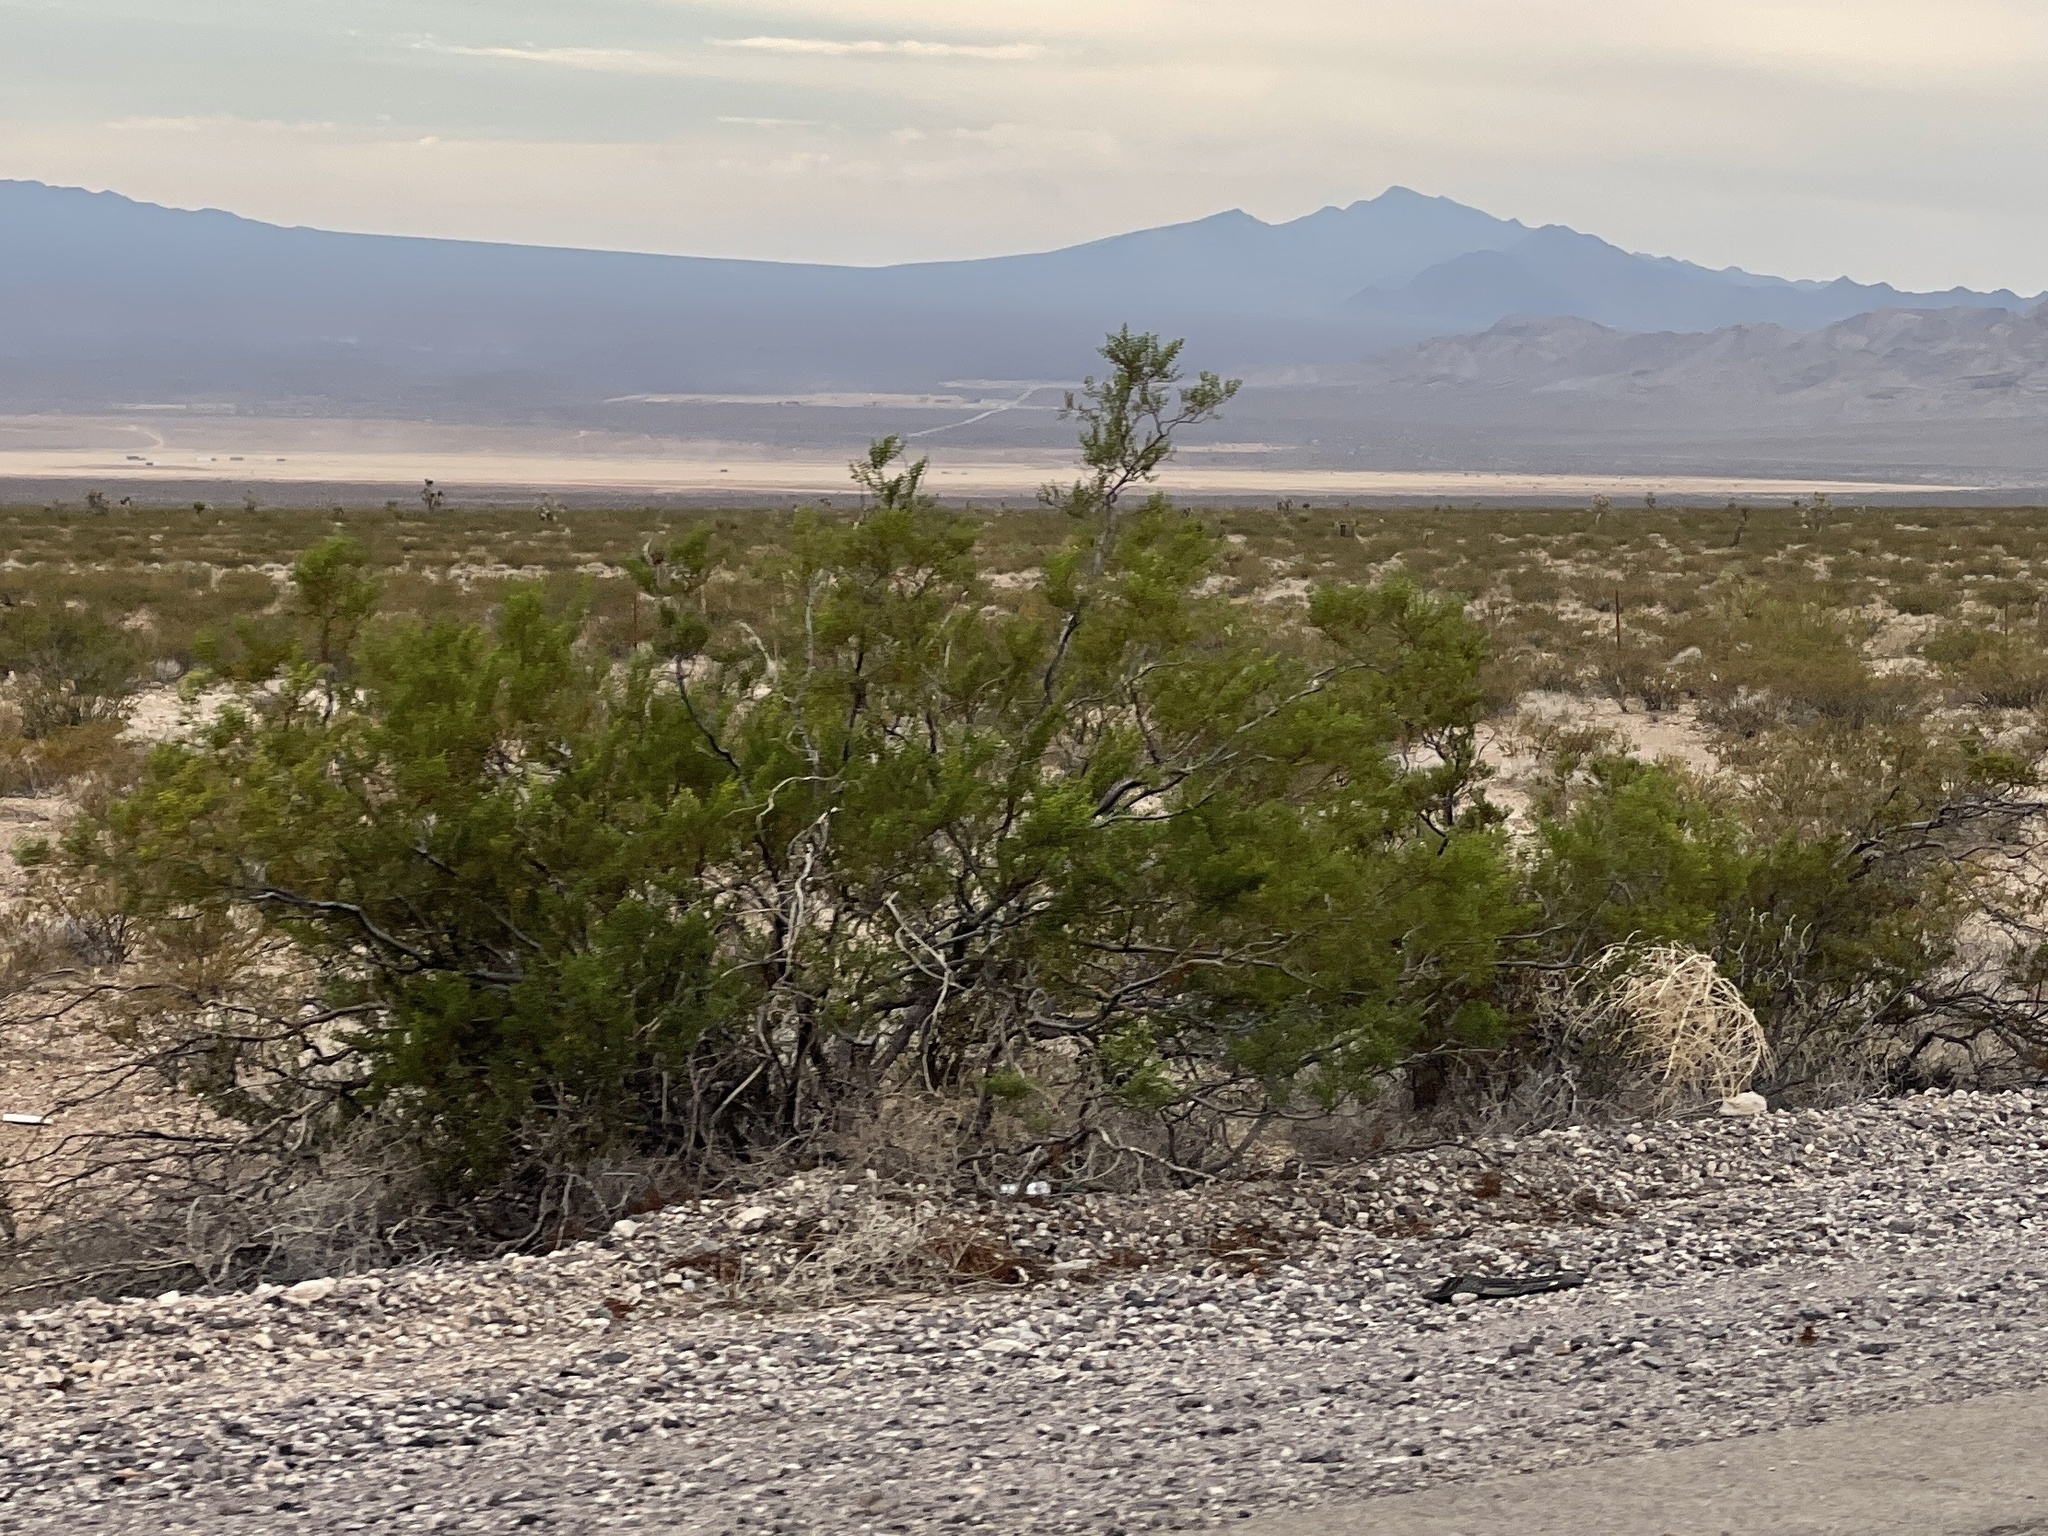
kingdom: Plantae
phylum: Tracheophyta
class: Magnoliopsida
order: Zygophyllales
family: Zygophyllaceae
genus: Larrea
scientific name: Larrea tridentata
